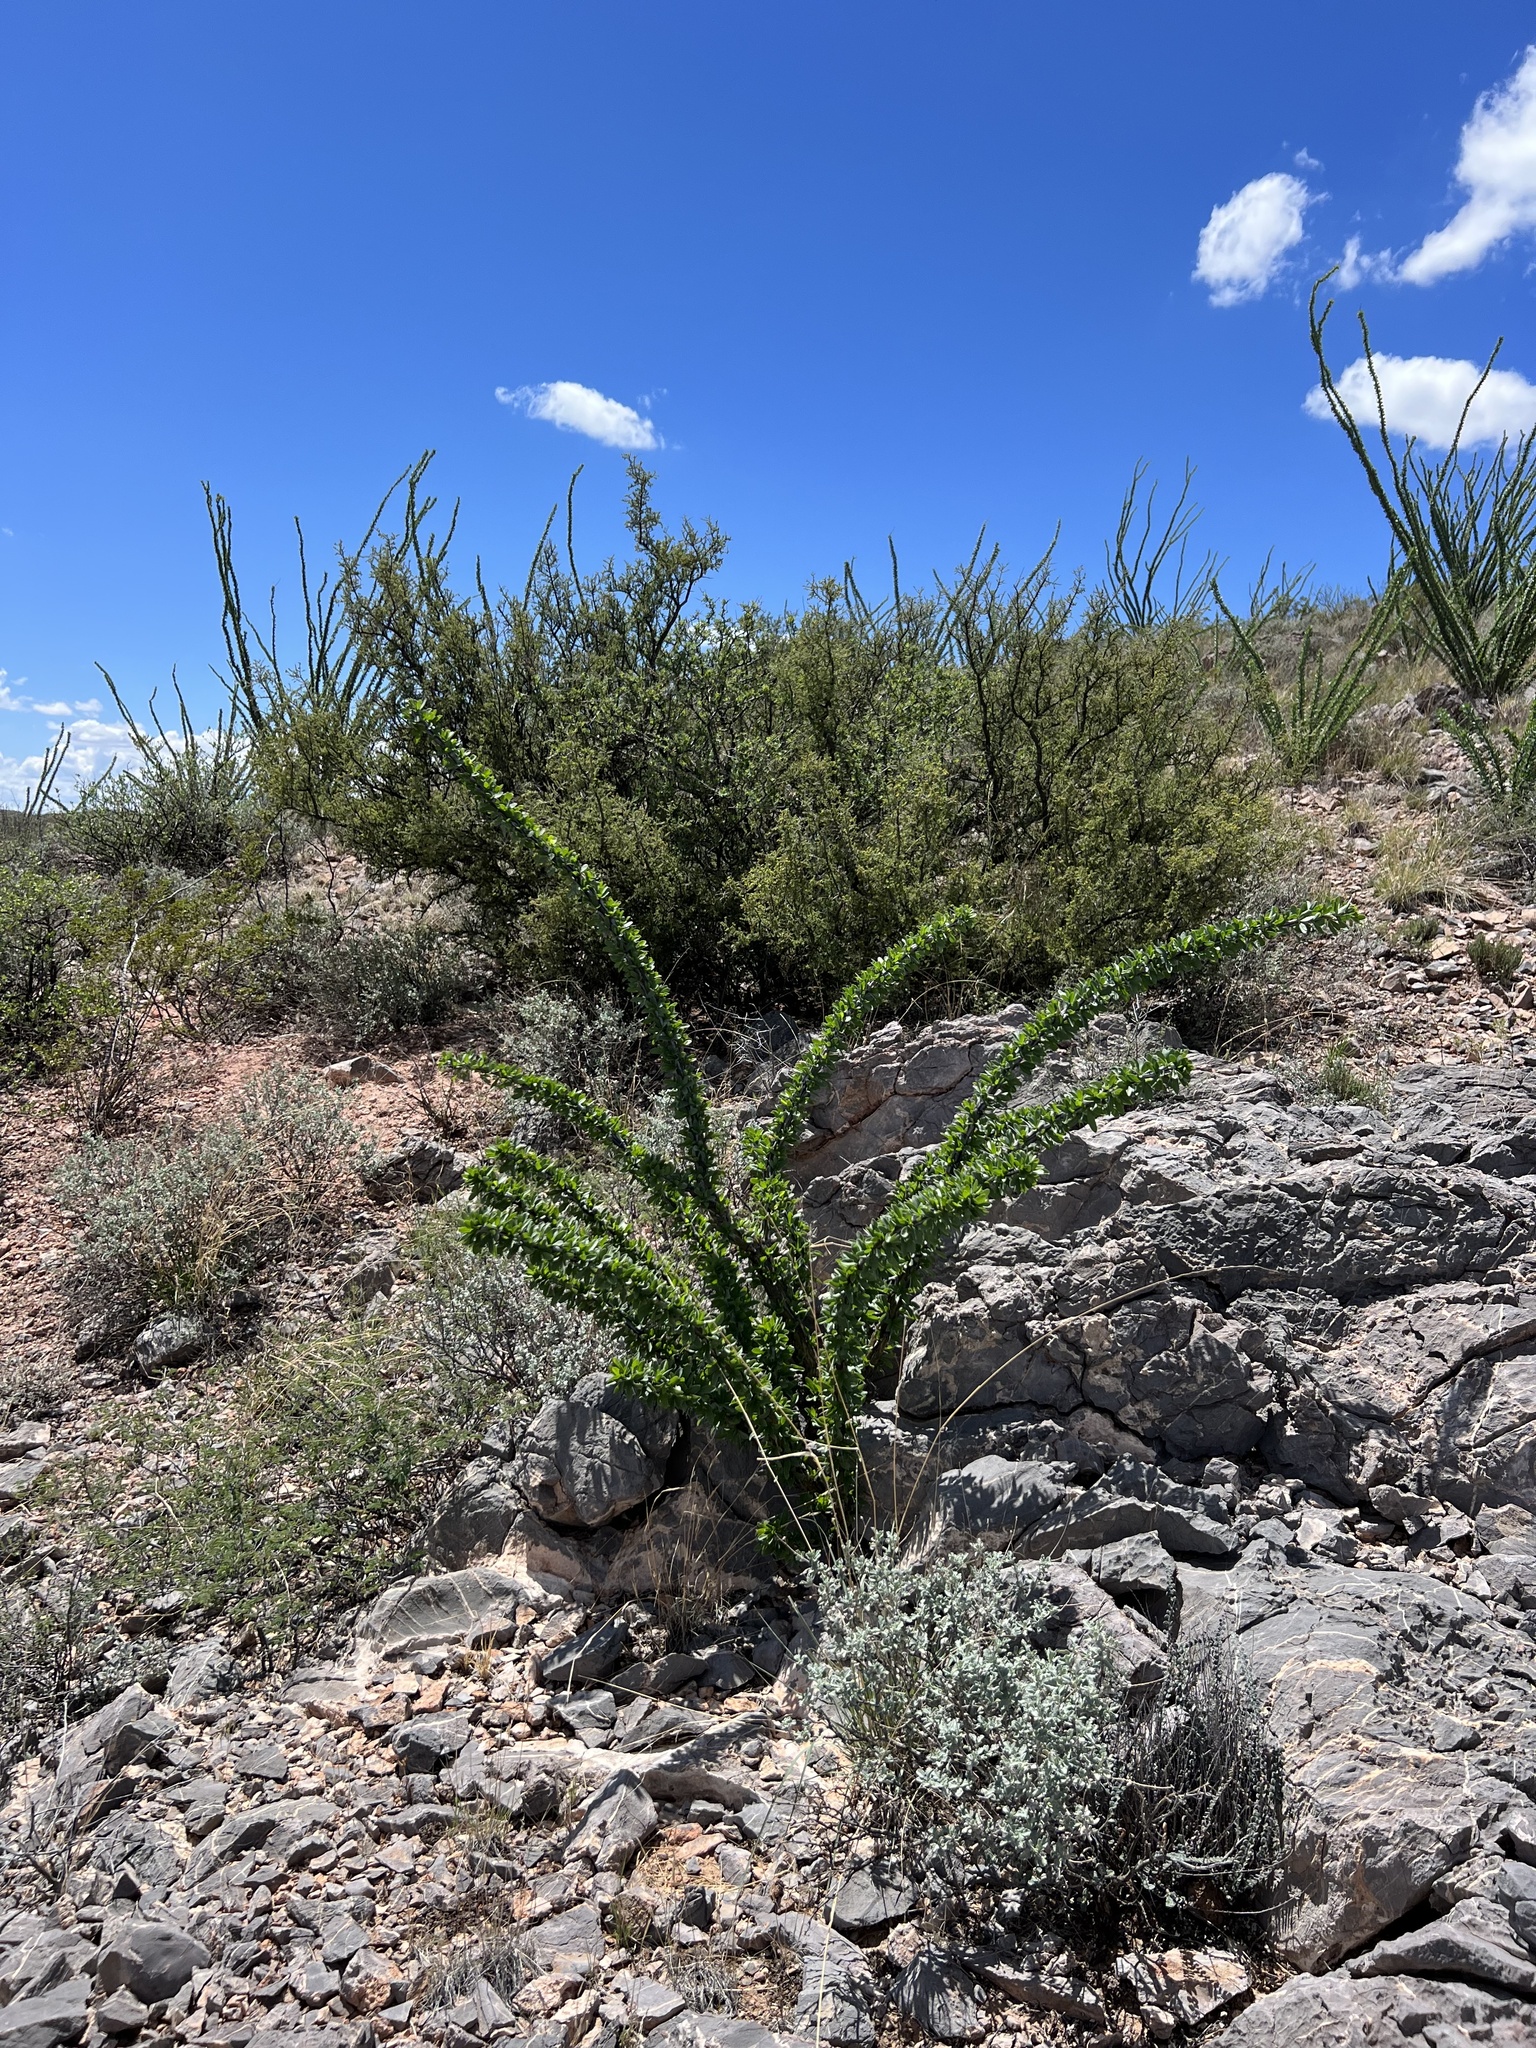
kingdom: Plantae
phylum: Tracheophyta
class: Magnoliopsida
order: Ericales
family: Fouquieriaceae
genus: Fouquieria
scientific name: Fouquieria splendens
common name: Vine-cactus
